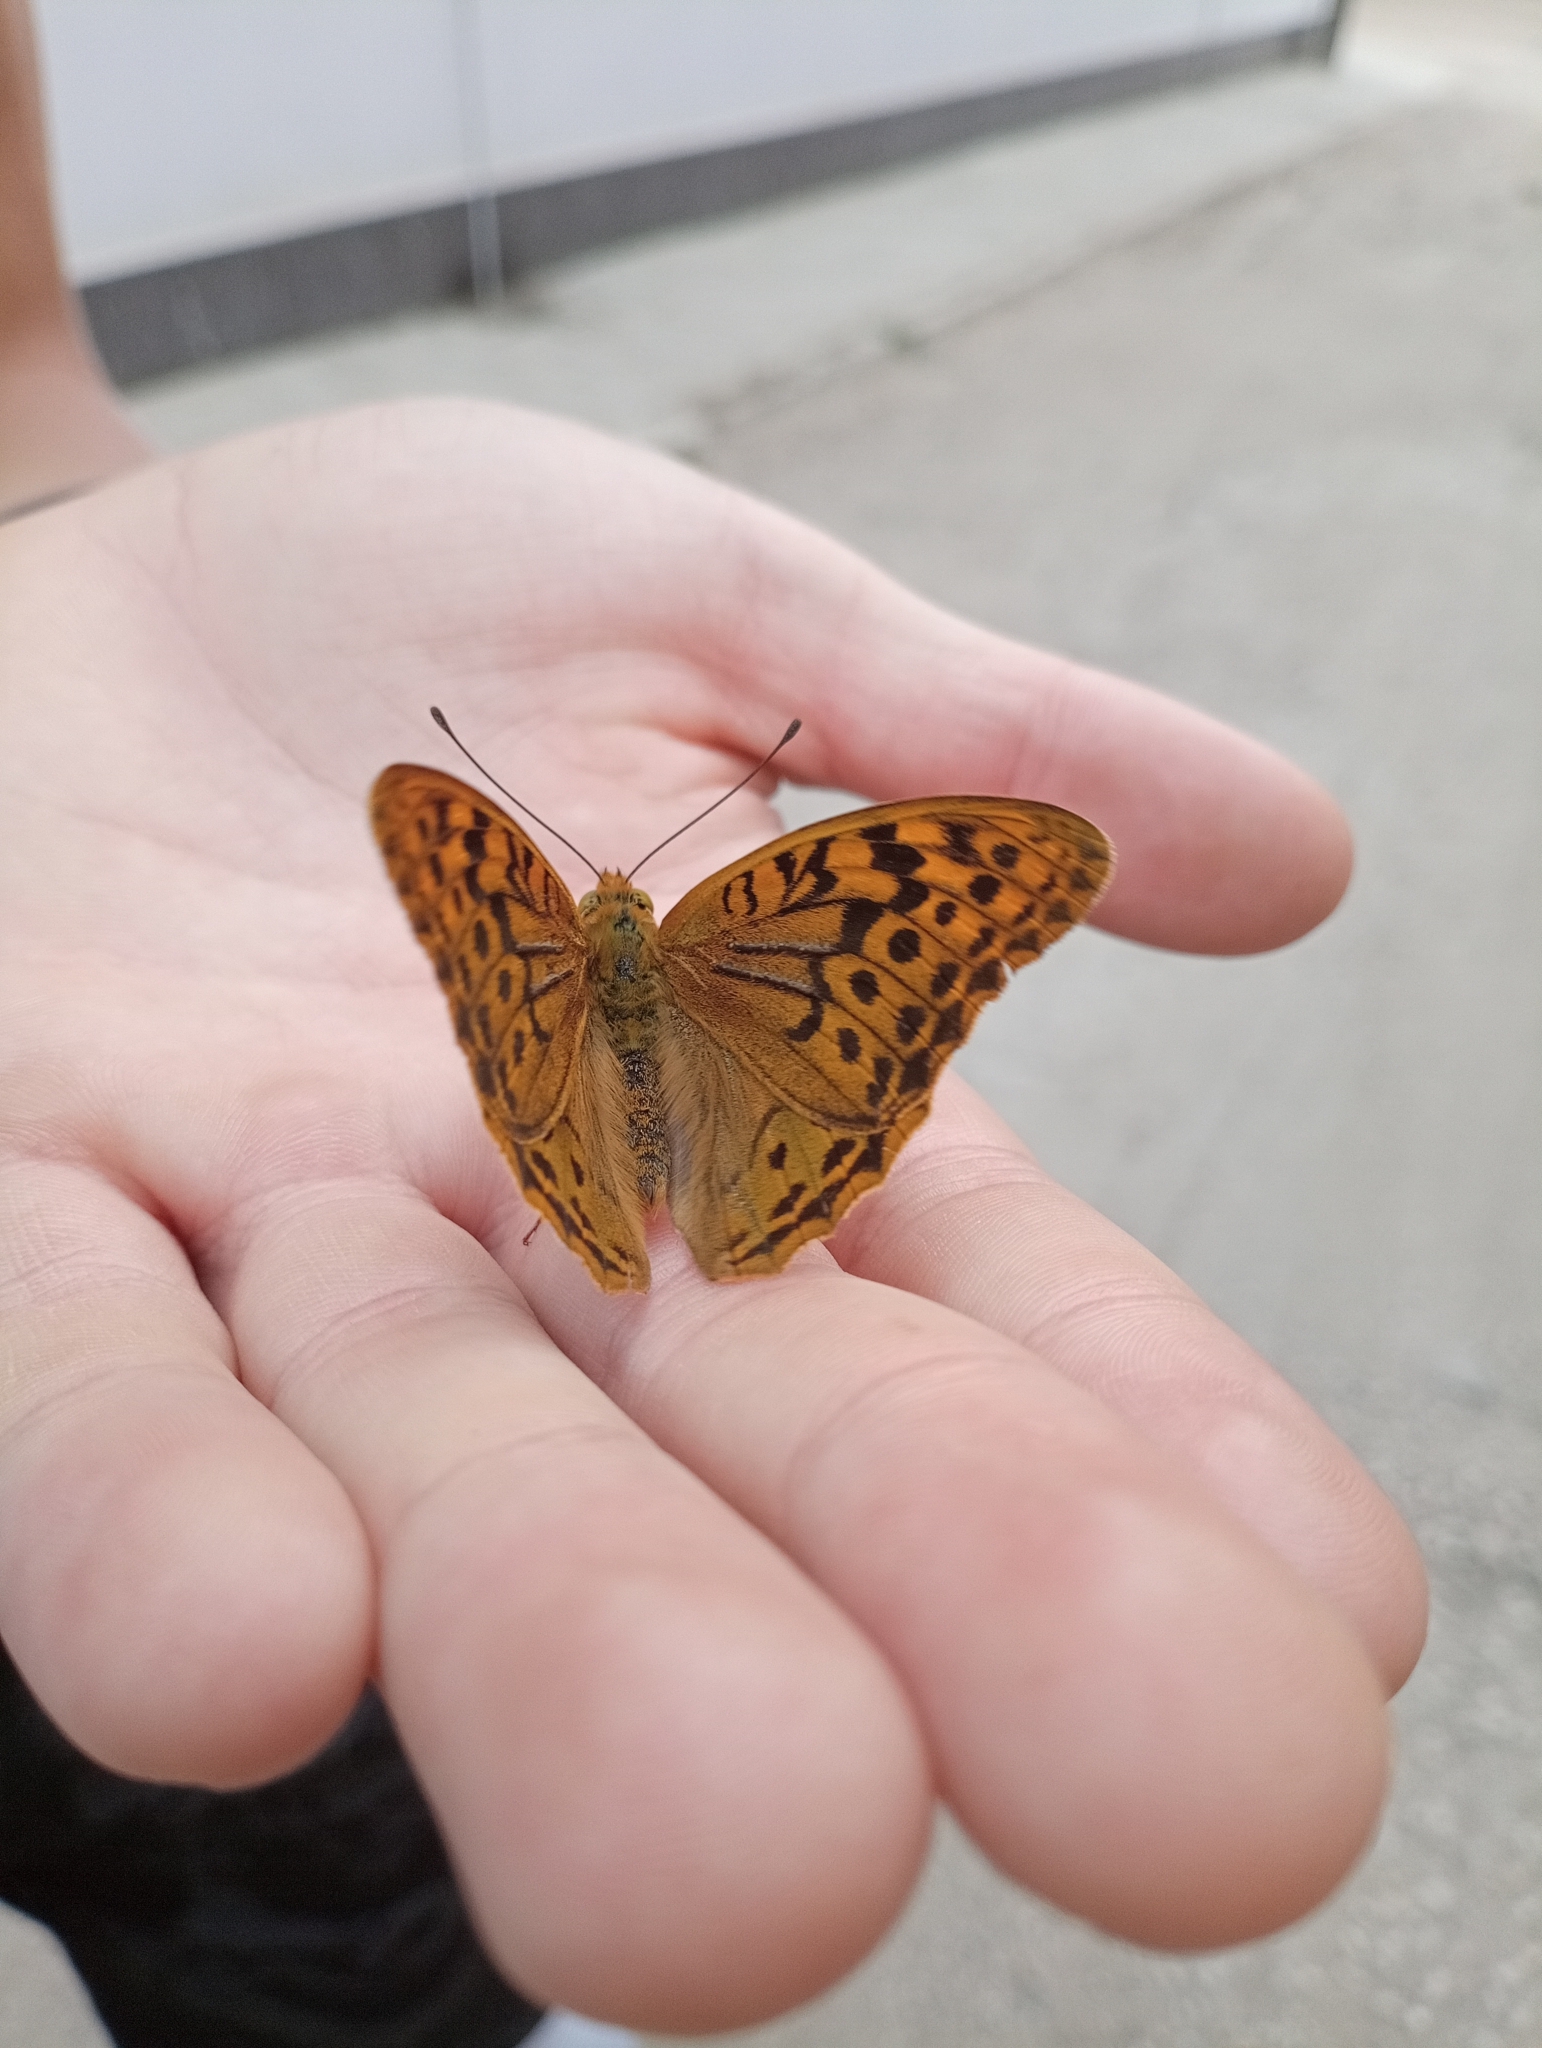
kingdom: Animalia
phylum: Arthropoda
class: Insecta
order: Lepidoptera
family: Nymphalidae
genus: Damora
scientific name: Damora pandora
